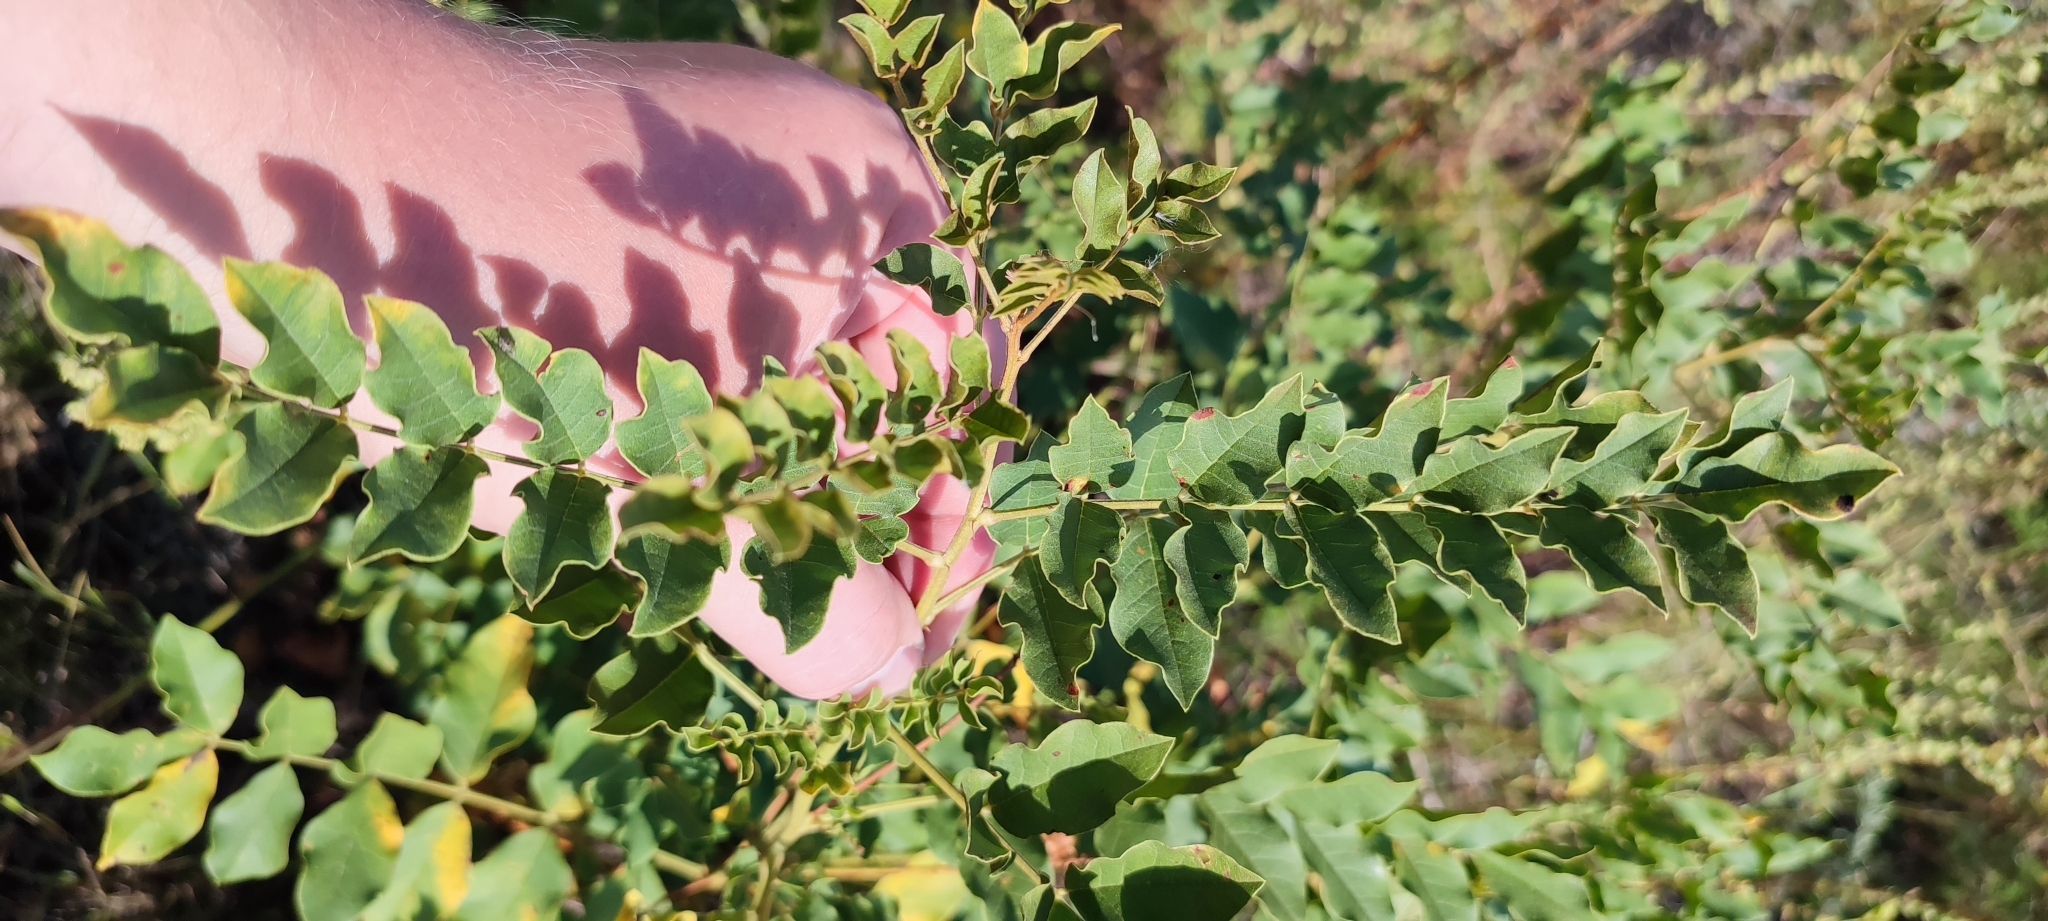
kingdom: Plantae
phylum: Tracheophyta
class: Magnoliopsida
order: Fabales
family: Fabaceae
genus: Glycyrrhiza
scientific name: Glycyrrhiza uralensis
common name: Chinese licorice
